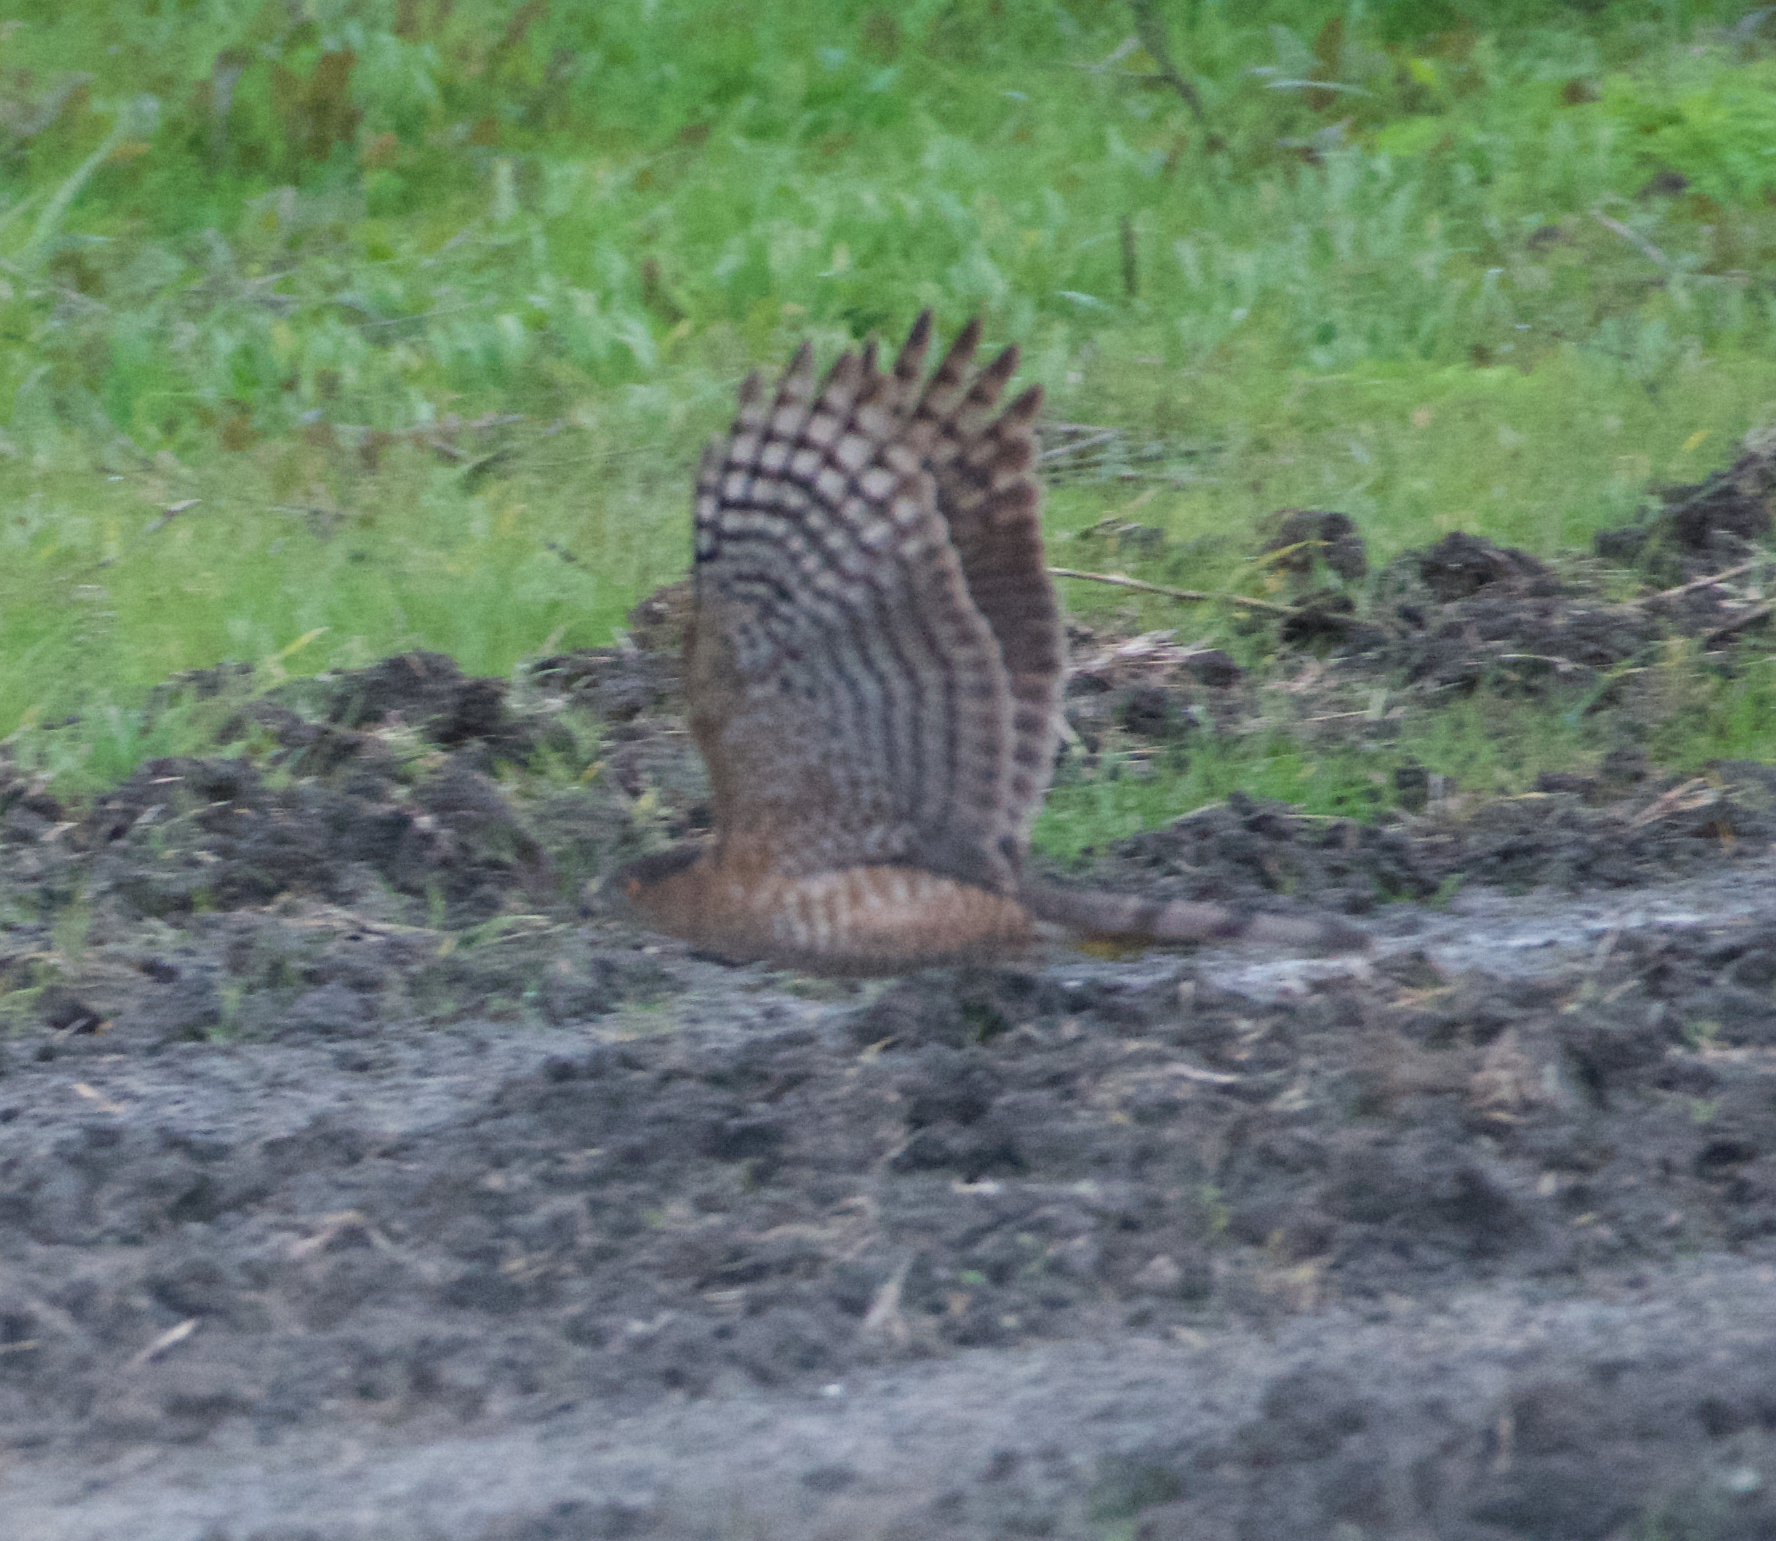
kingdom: Animalia
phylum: Chordata
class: Aves
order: Accipitriformes
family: Accipitridae
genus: Accipiter
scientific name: Accipiter cooperii
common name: Cooper's hawk
